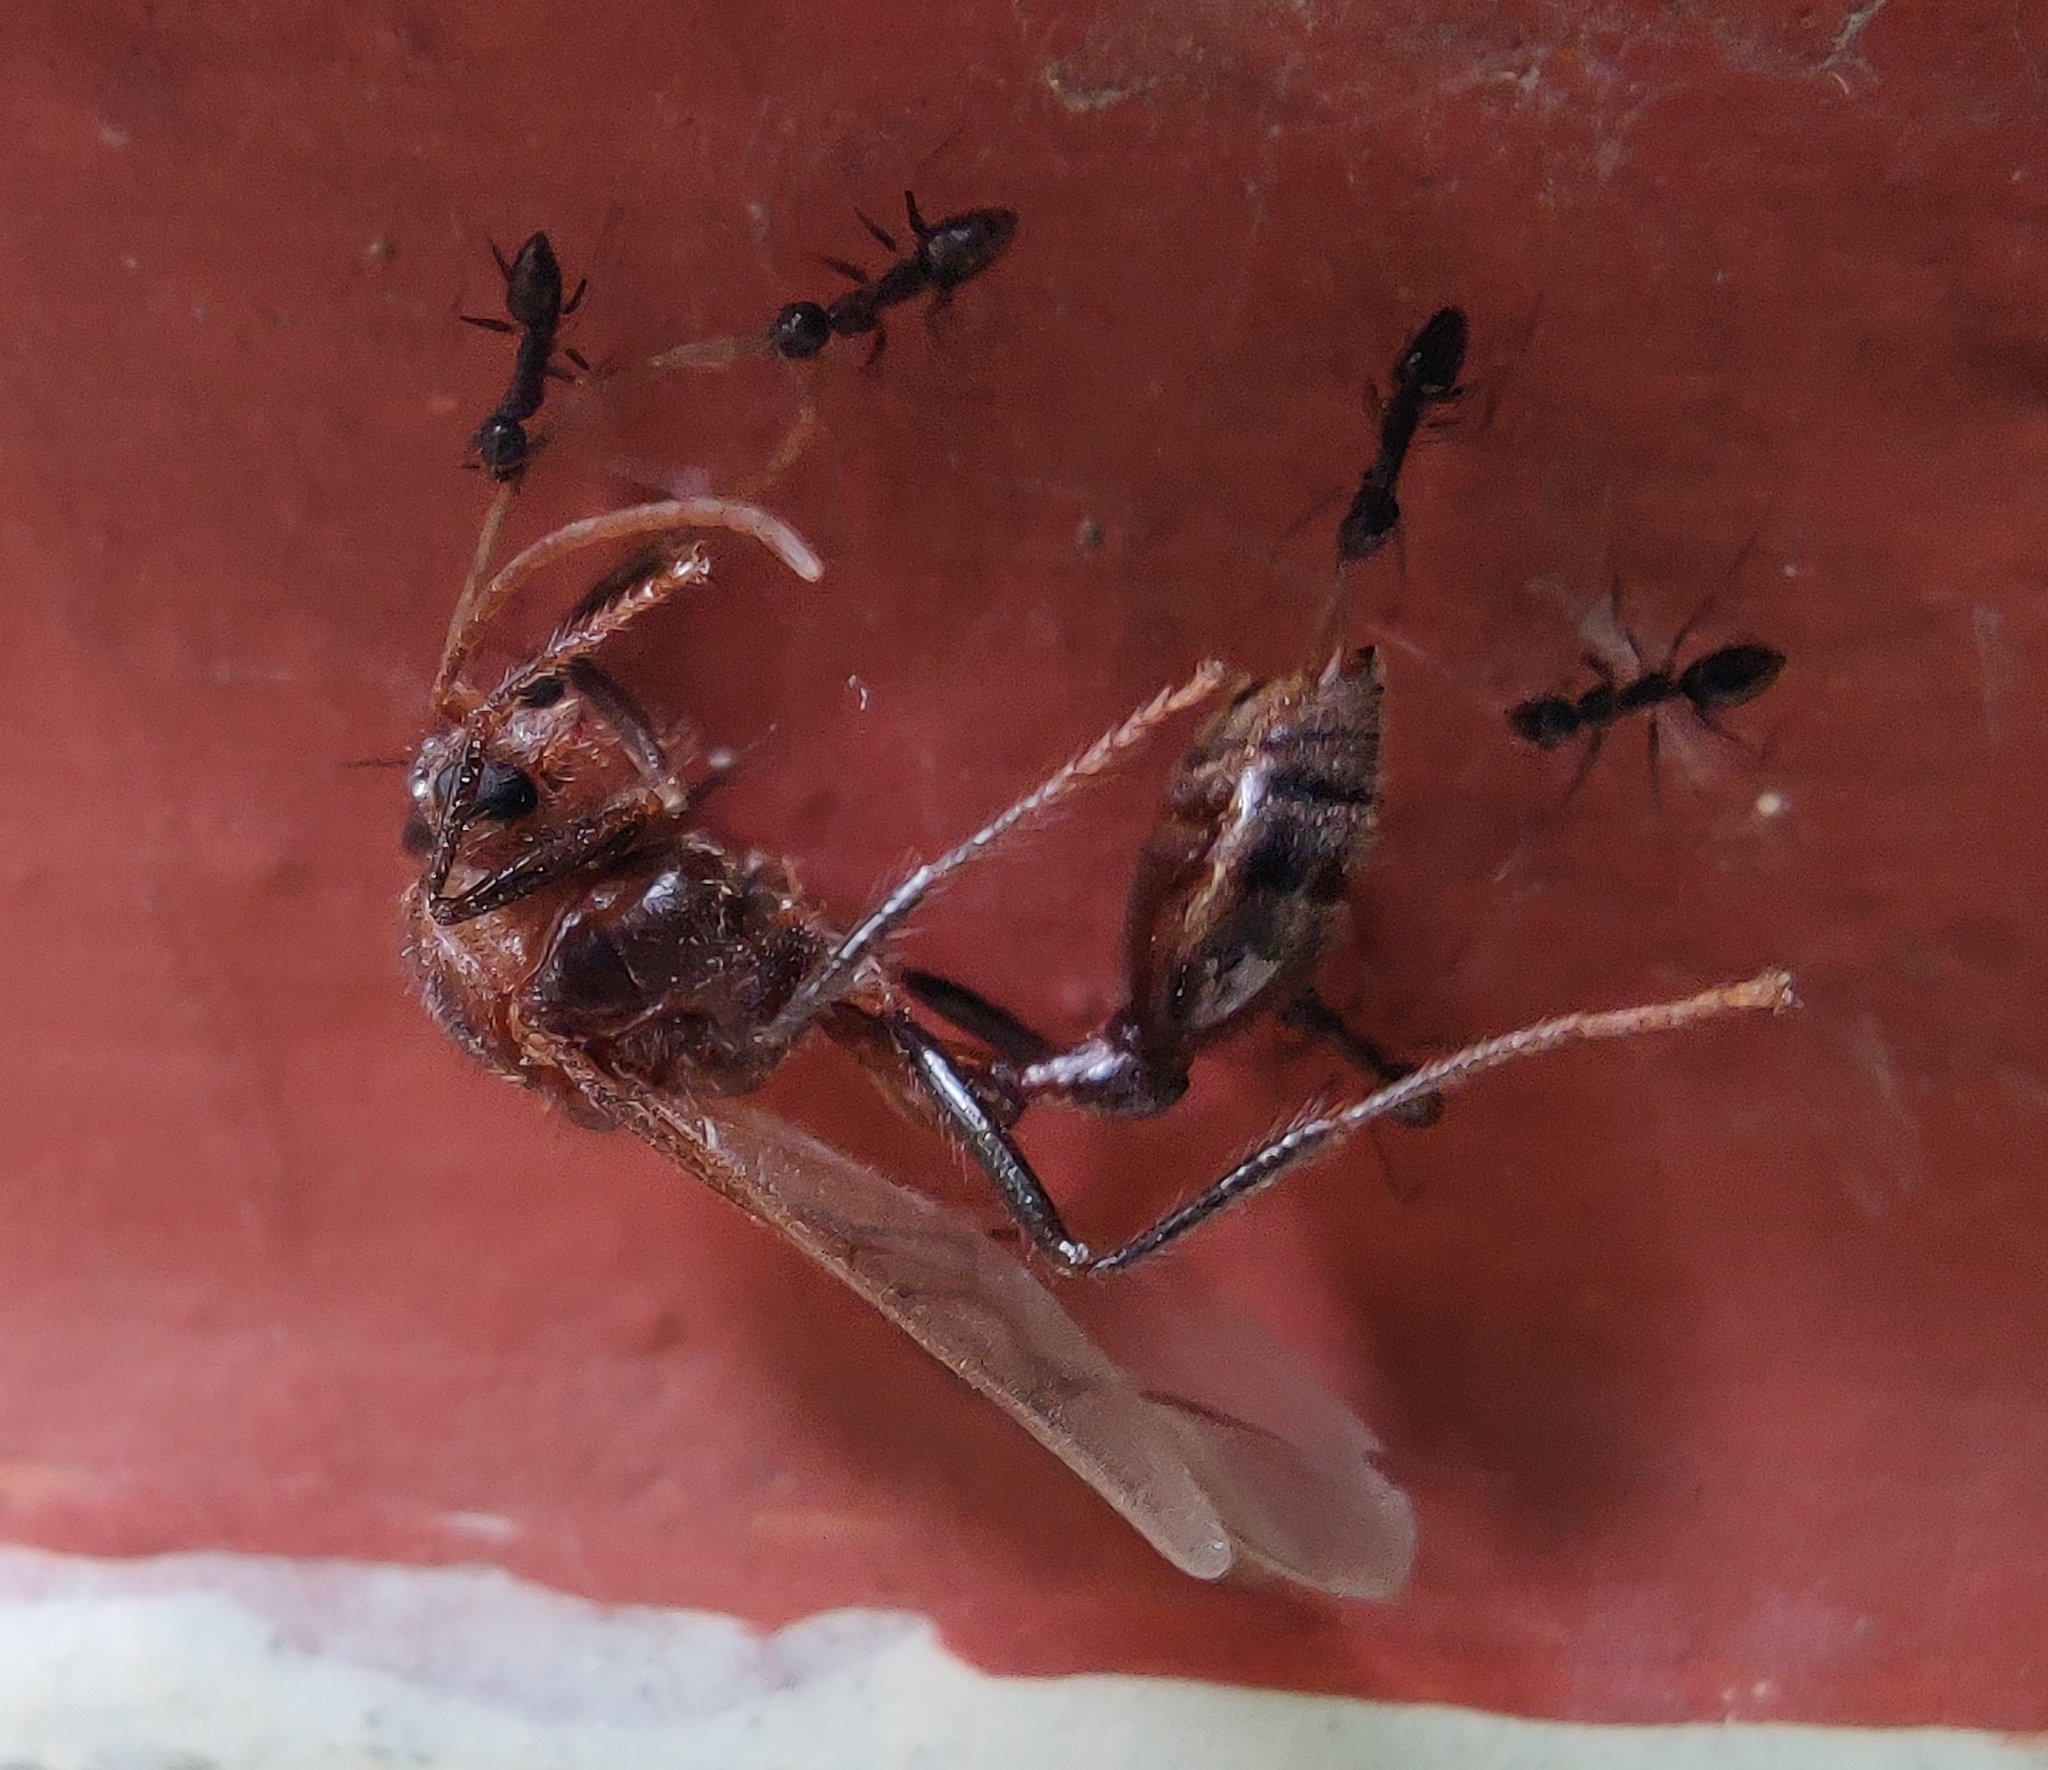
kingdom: Animalia
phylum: Arthropoda
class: Insecta
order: Hymenoptera
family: Formicidae
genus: Paratrechina
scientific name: Paratrechina longicornis
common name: Longhorned crazy ant
